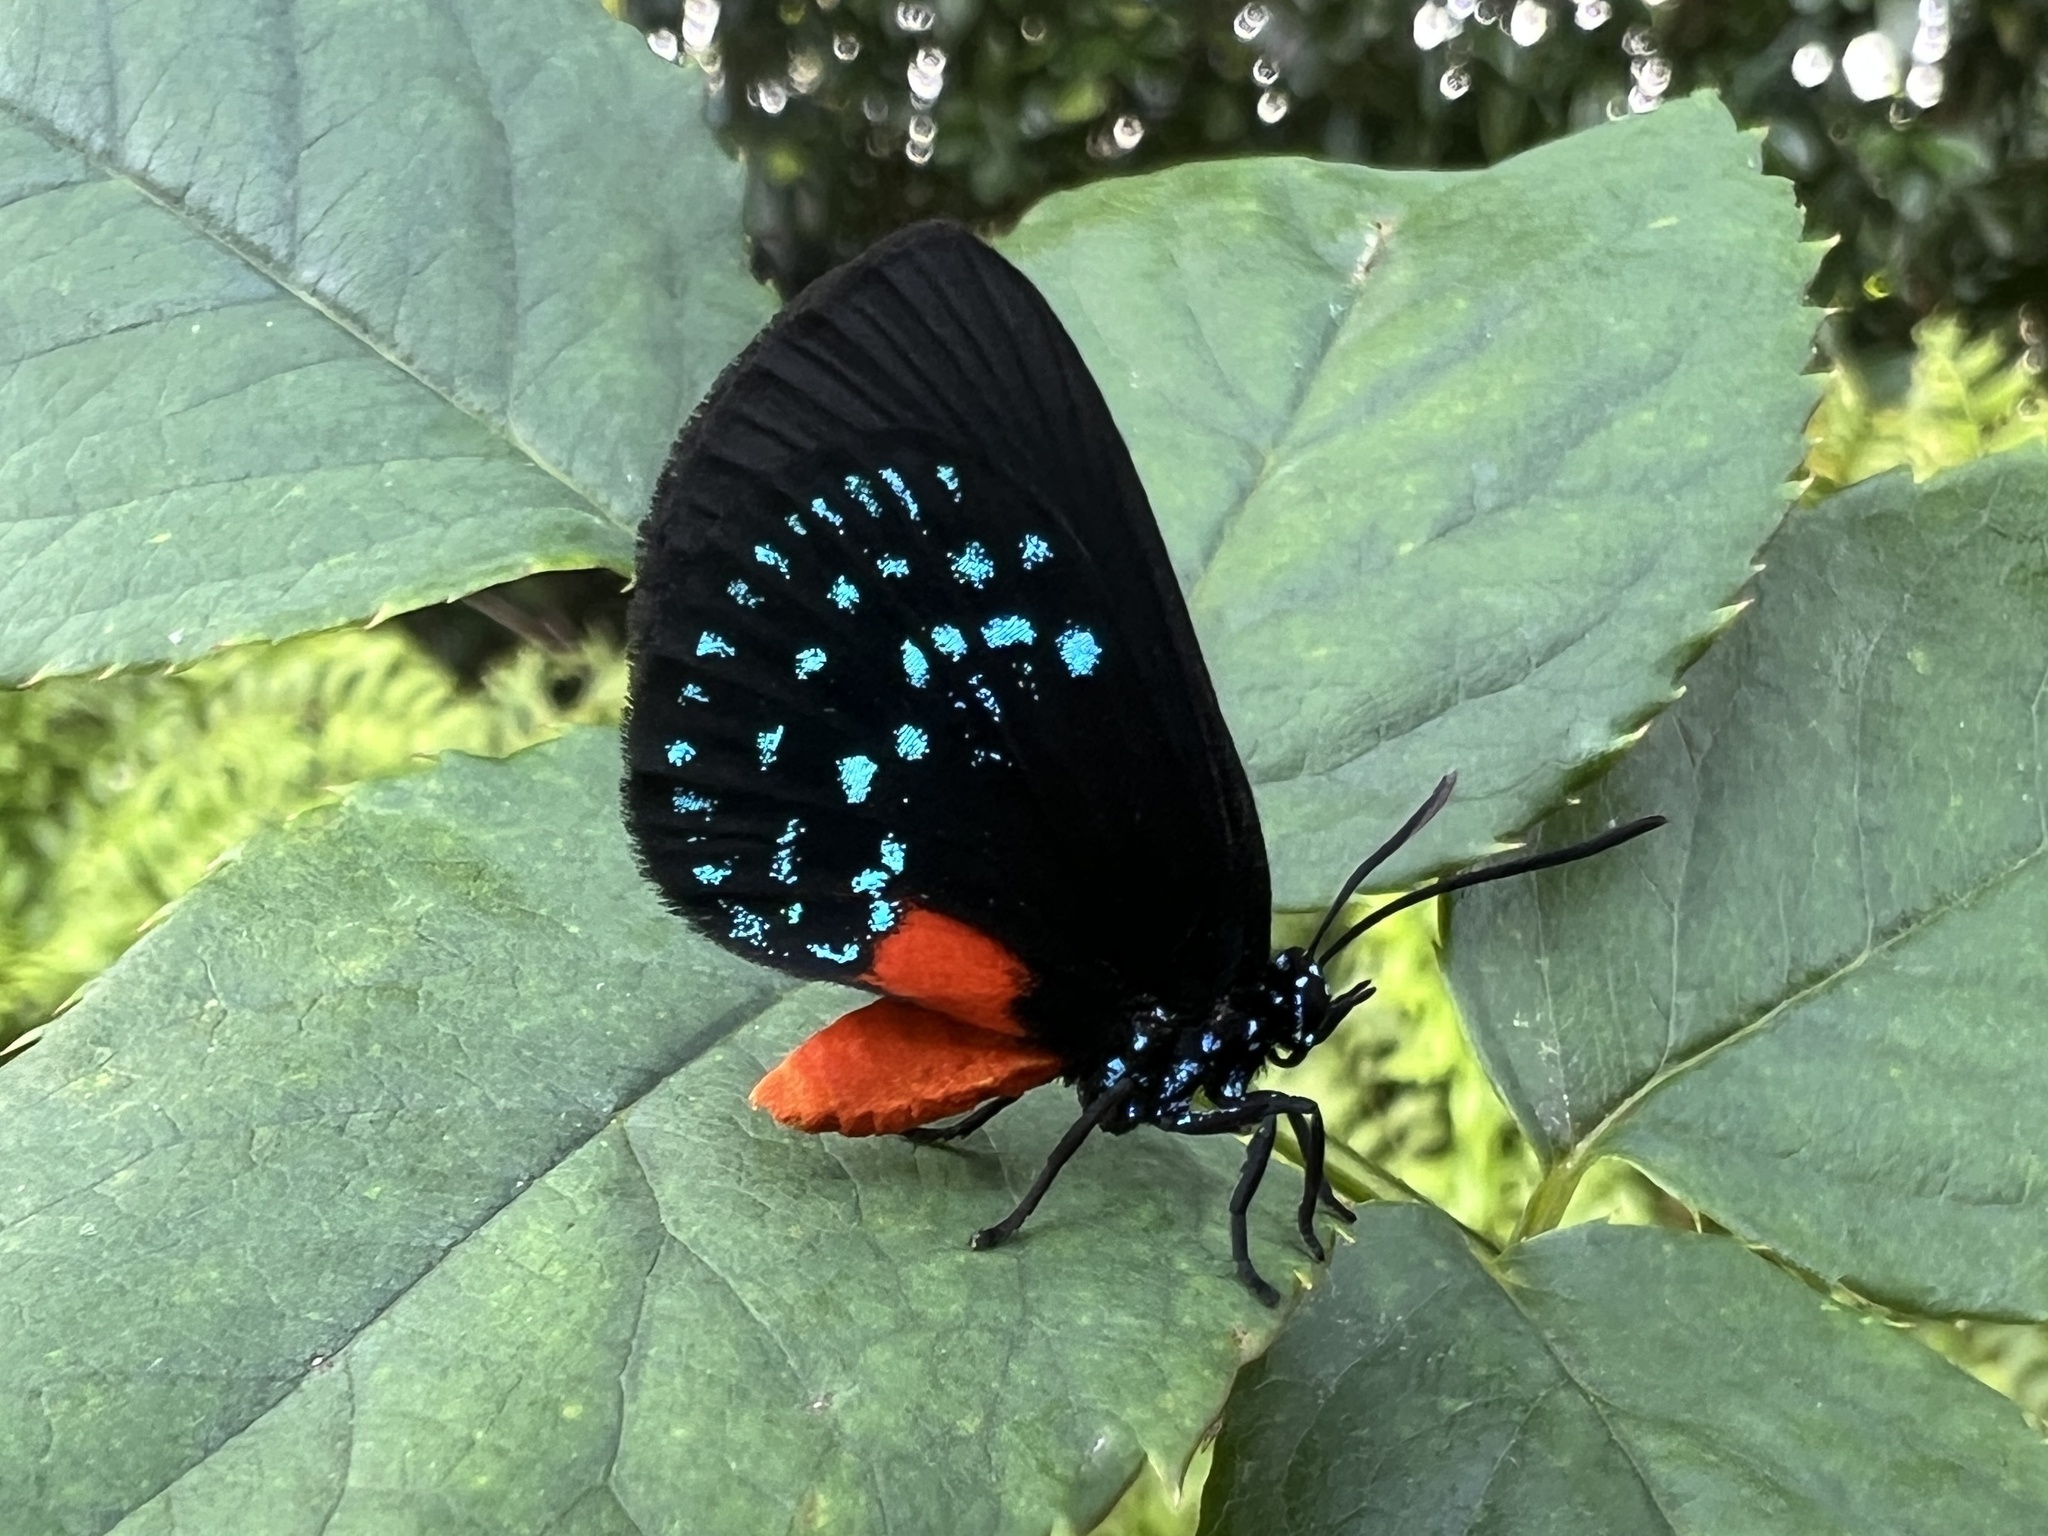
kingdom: Animalia
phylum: Arthropoda
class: Insecta
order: Lepidoptera
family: Lycaenidae
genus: Eumaeus
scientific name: Eumaeus atala
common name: Atala
